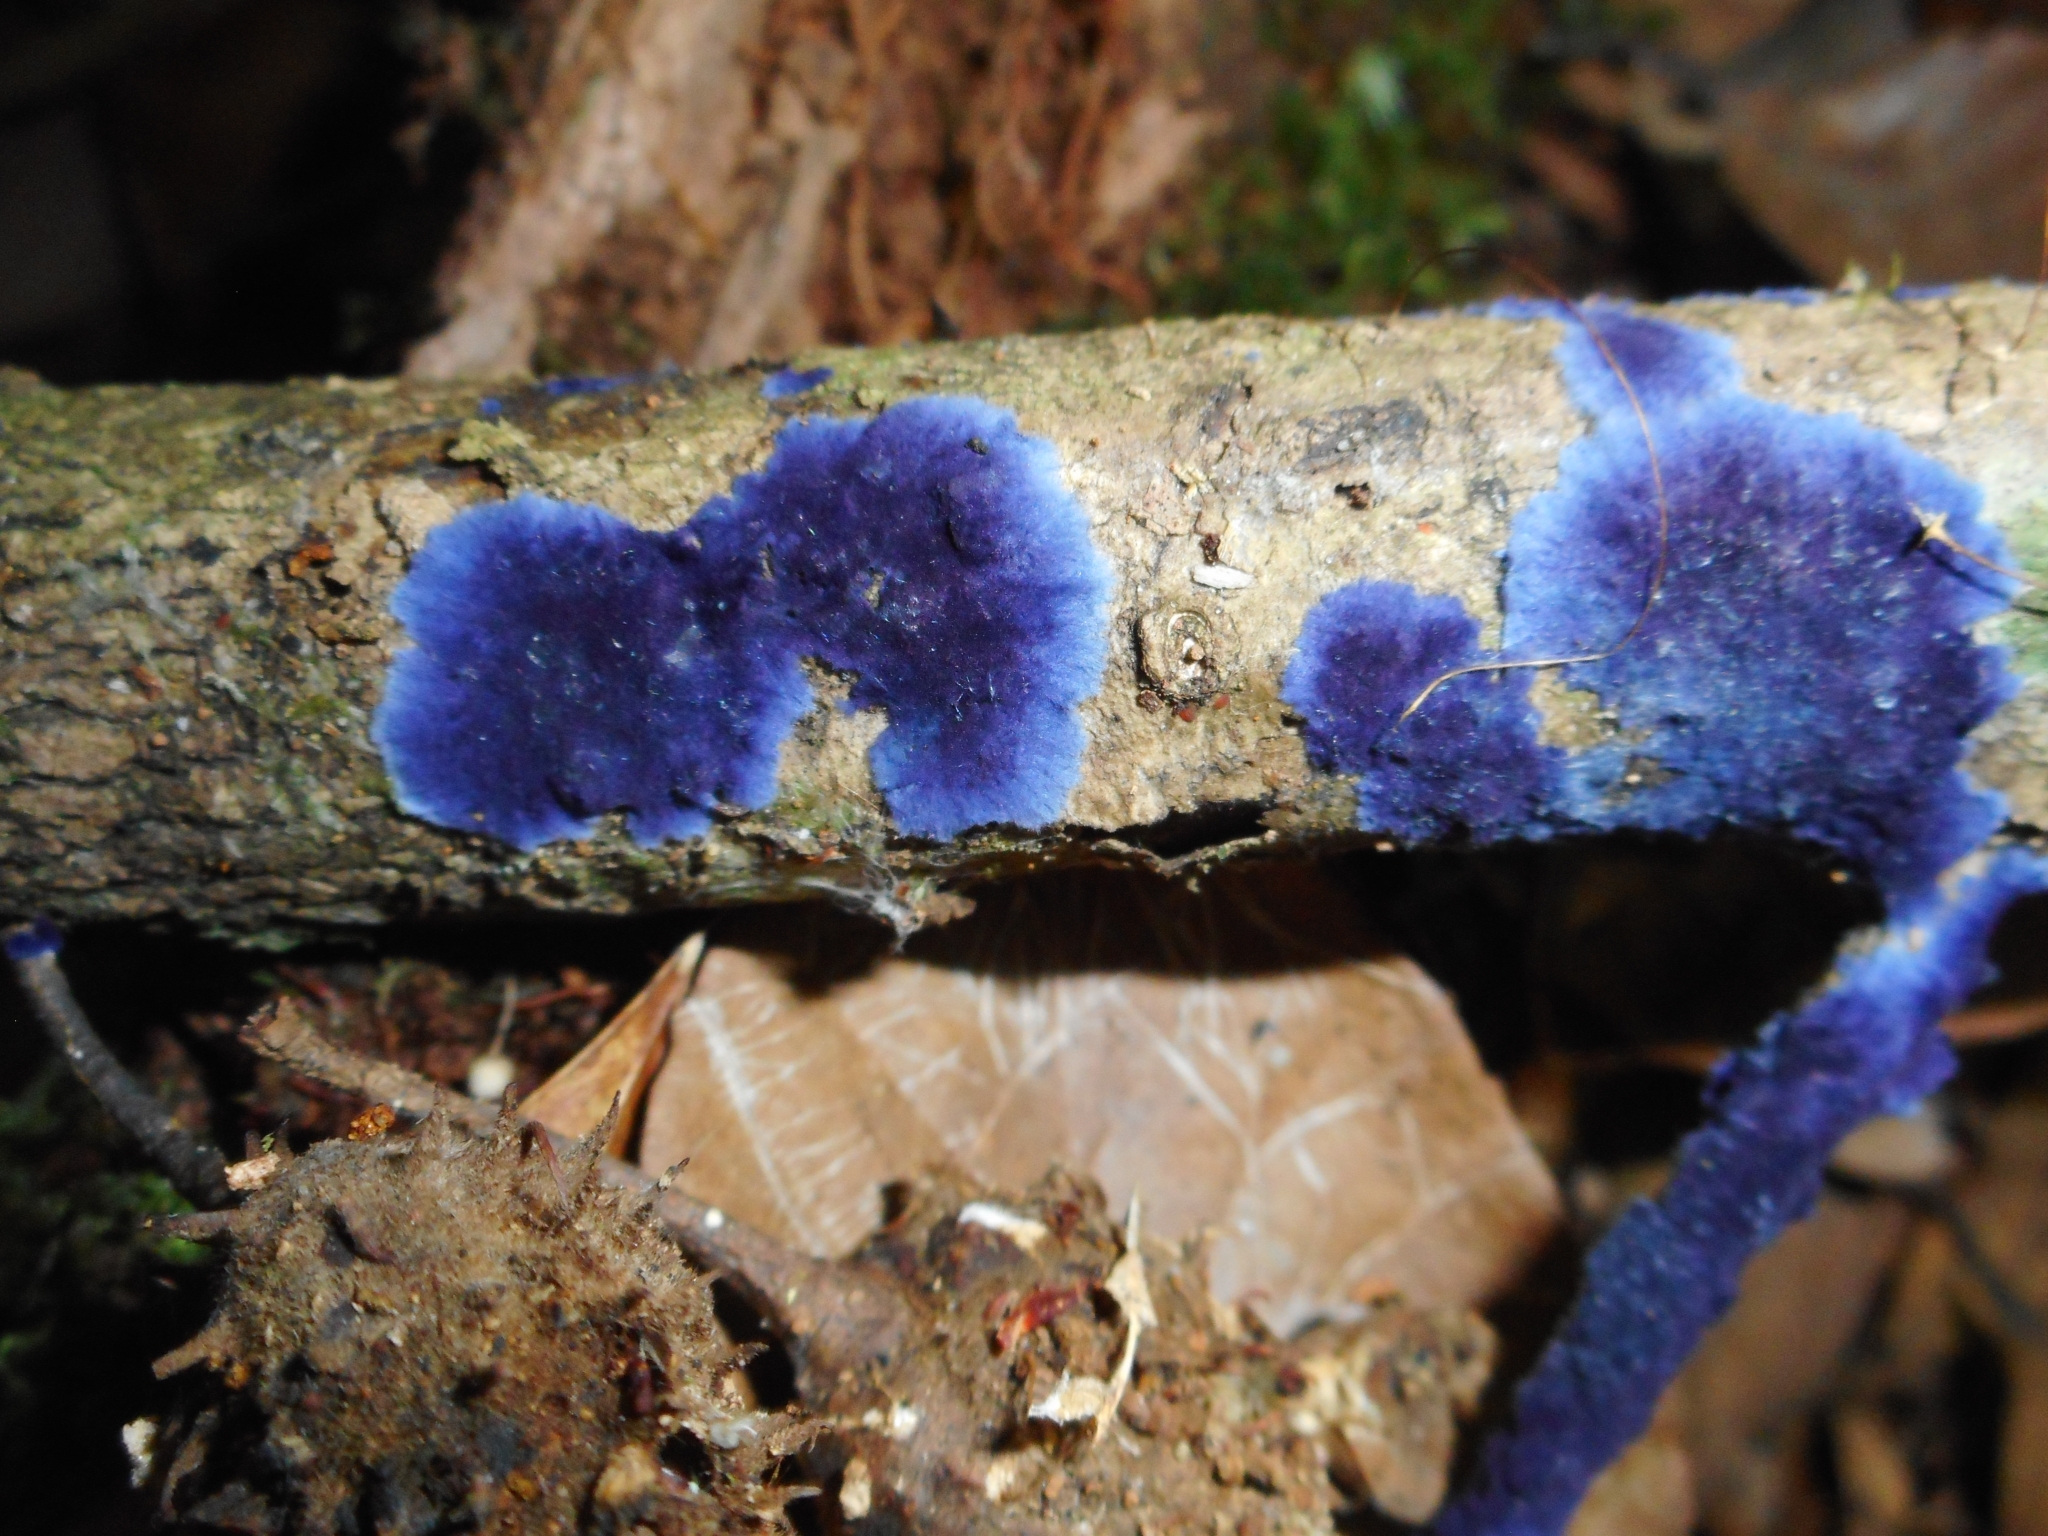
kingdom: Fungi
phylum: Basidiomycota
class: Agaricomycetes
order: Polyporales
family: Phanerochaetaceae
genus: Terana
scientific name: Terana coerulea
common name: Cobalt crust
